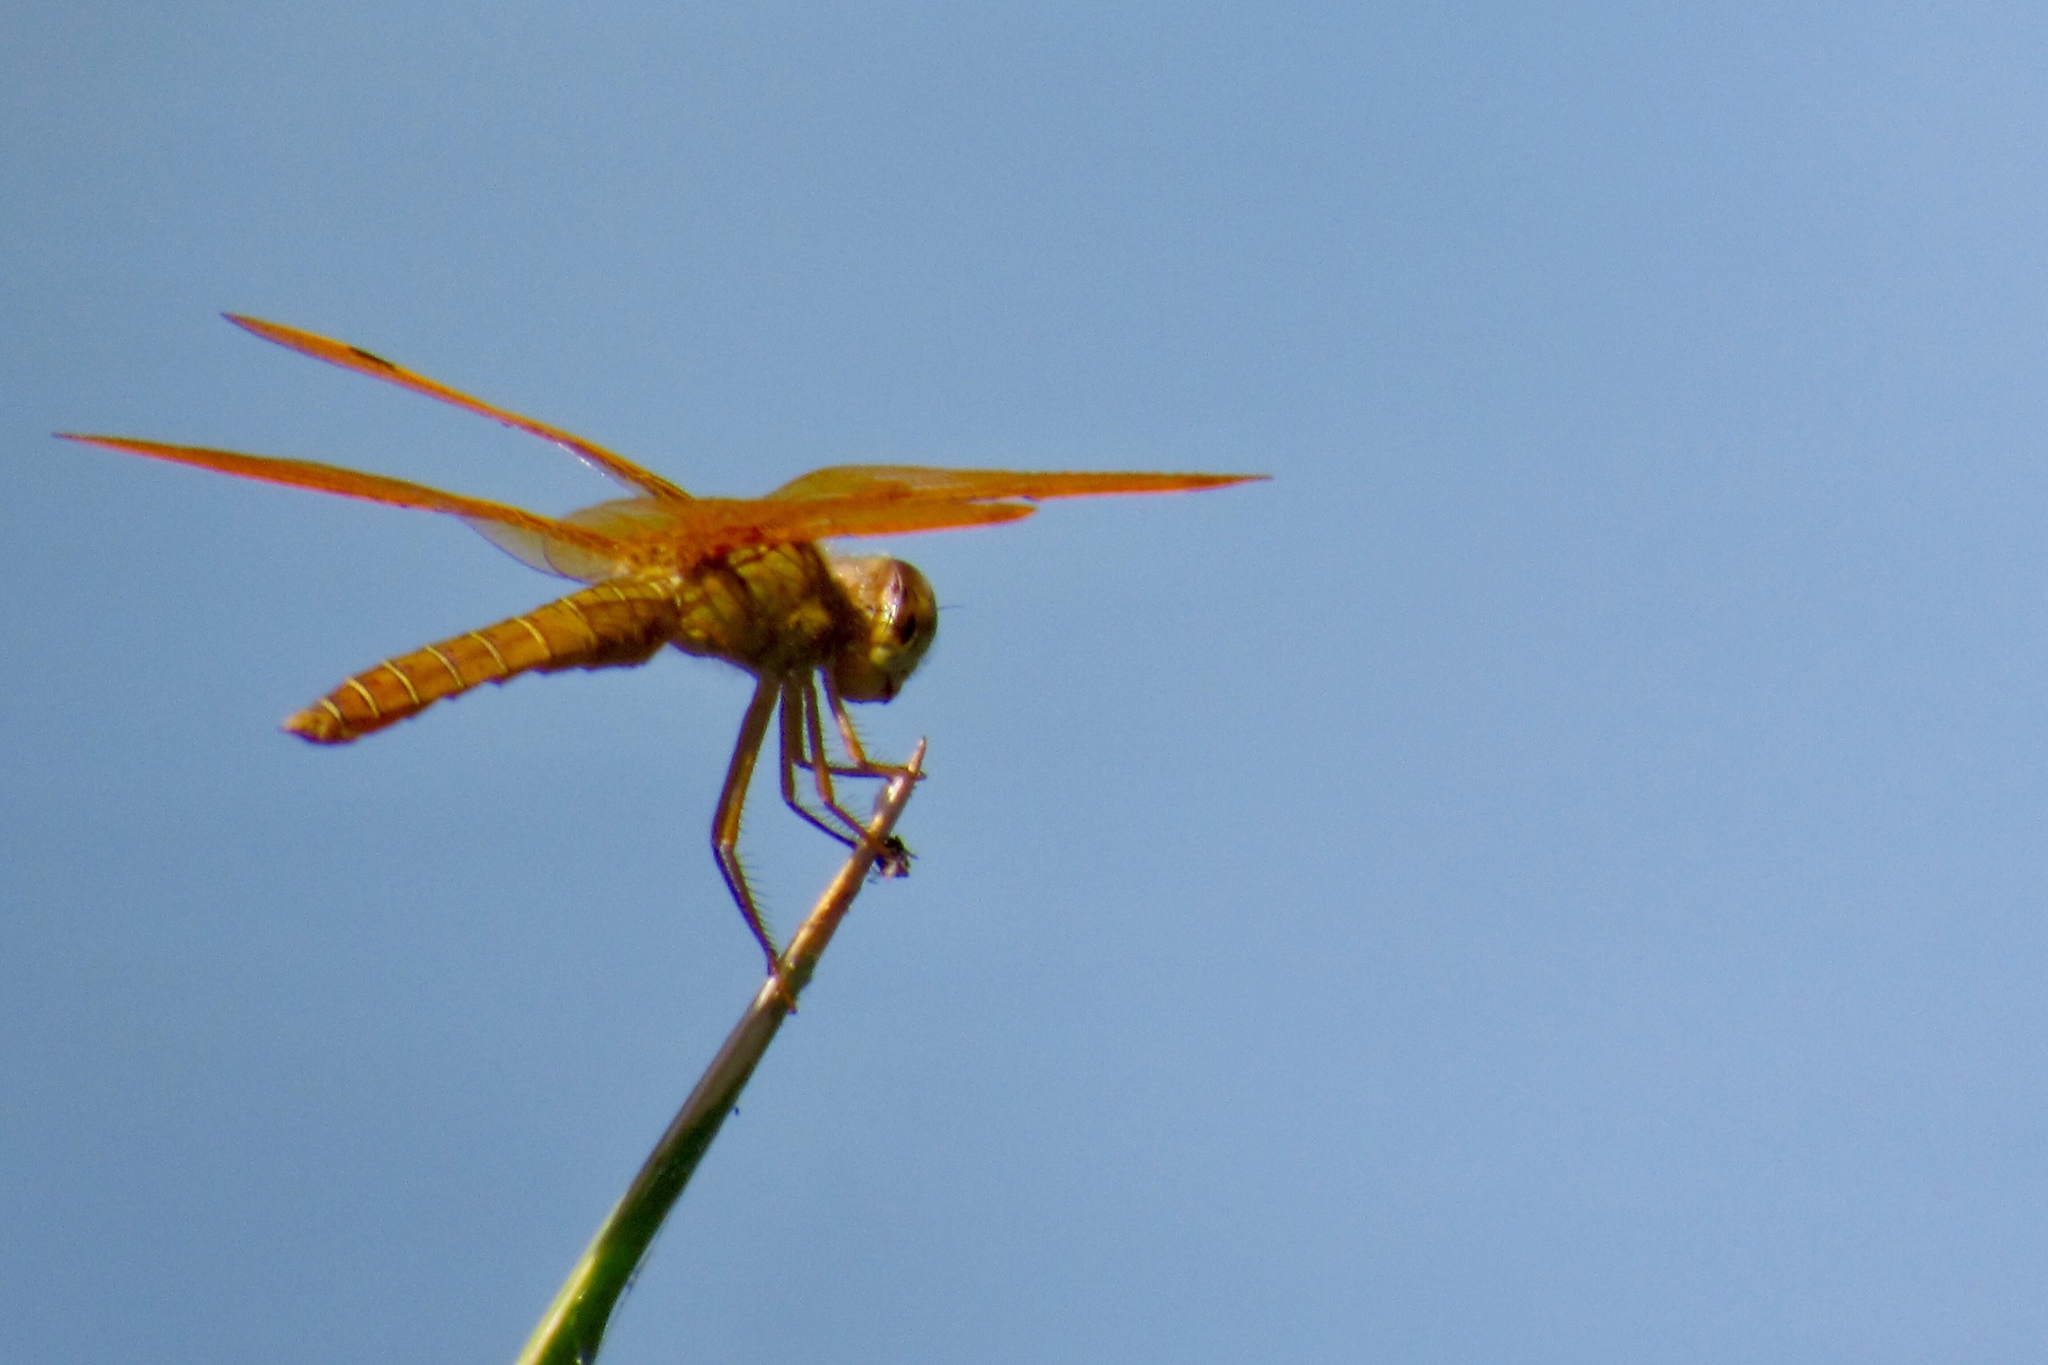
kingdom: Animalia
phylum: Arthropoda
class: Insecta
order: Odonata
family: Libellulidae
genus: Perithemis
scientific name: Perithemis intensa
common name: Mexican amberwing
